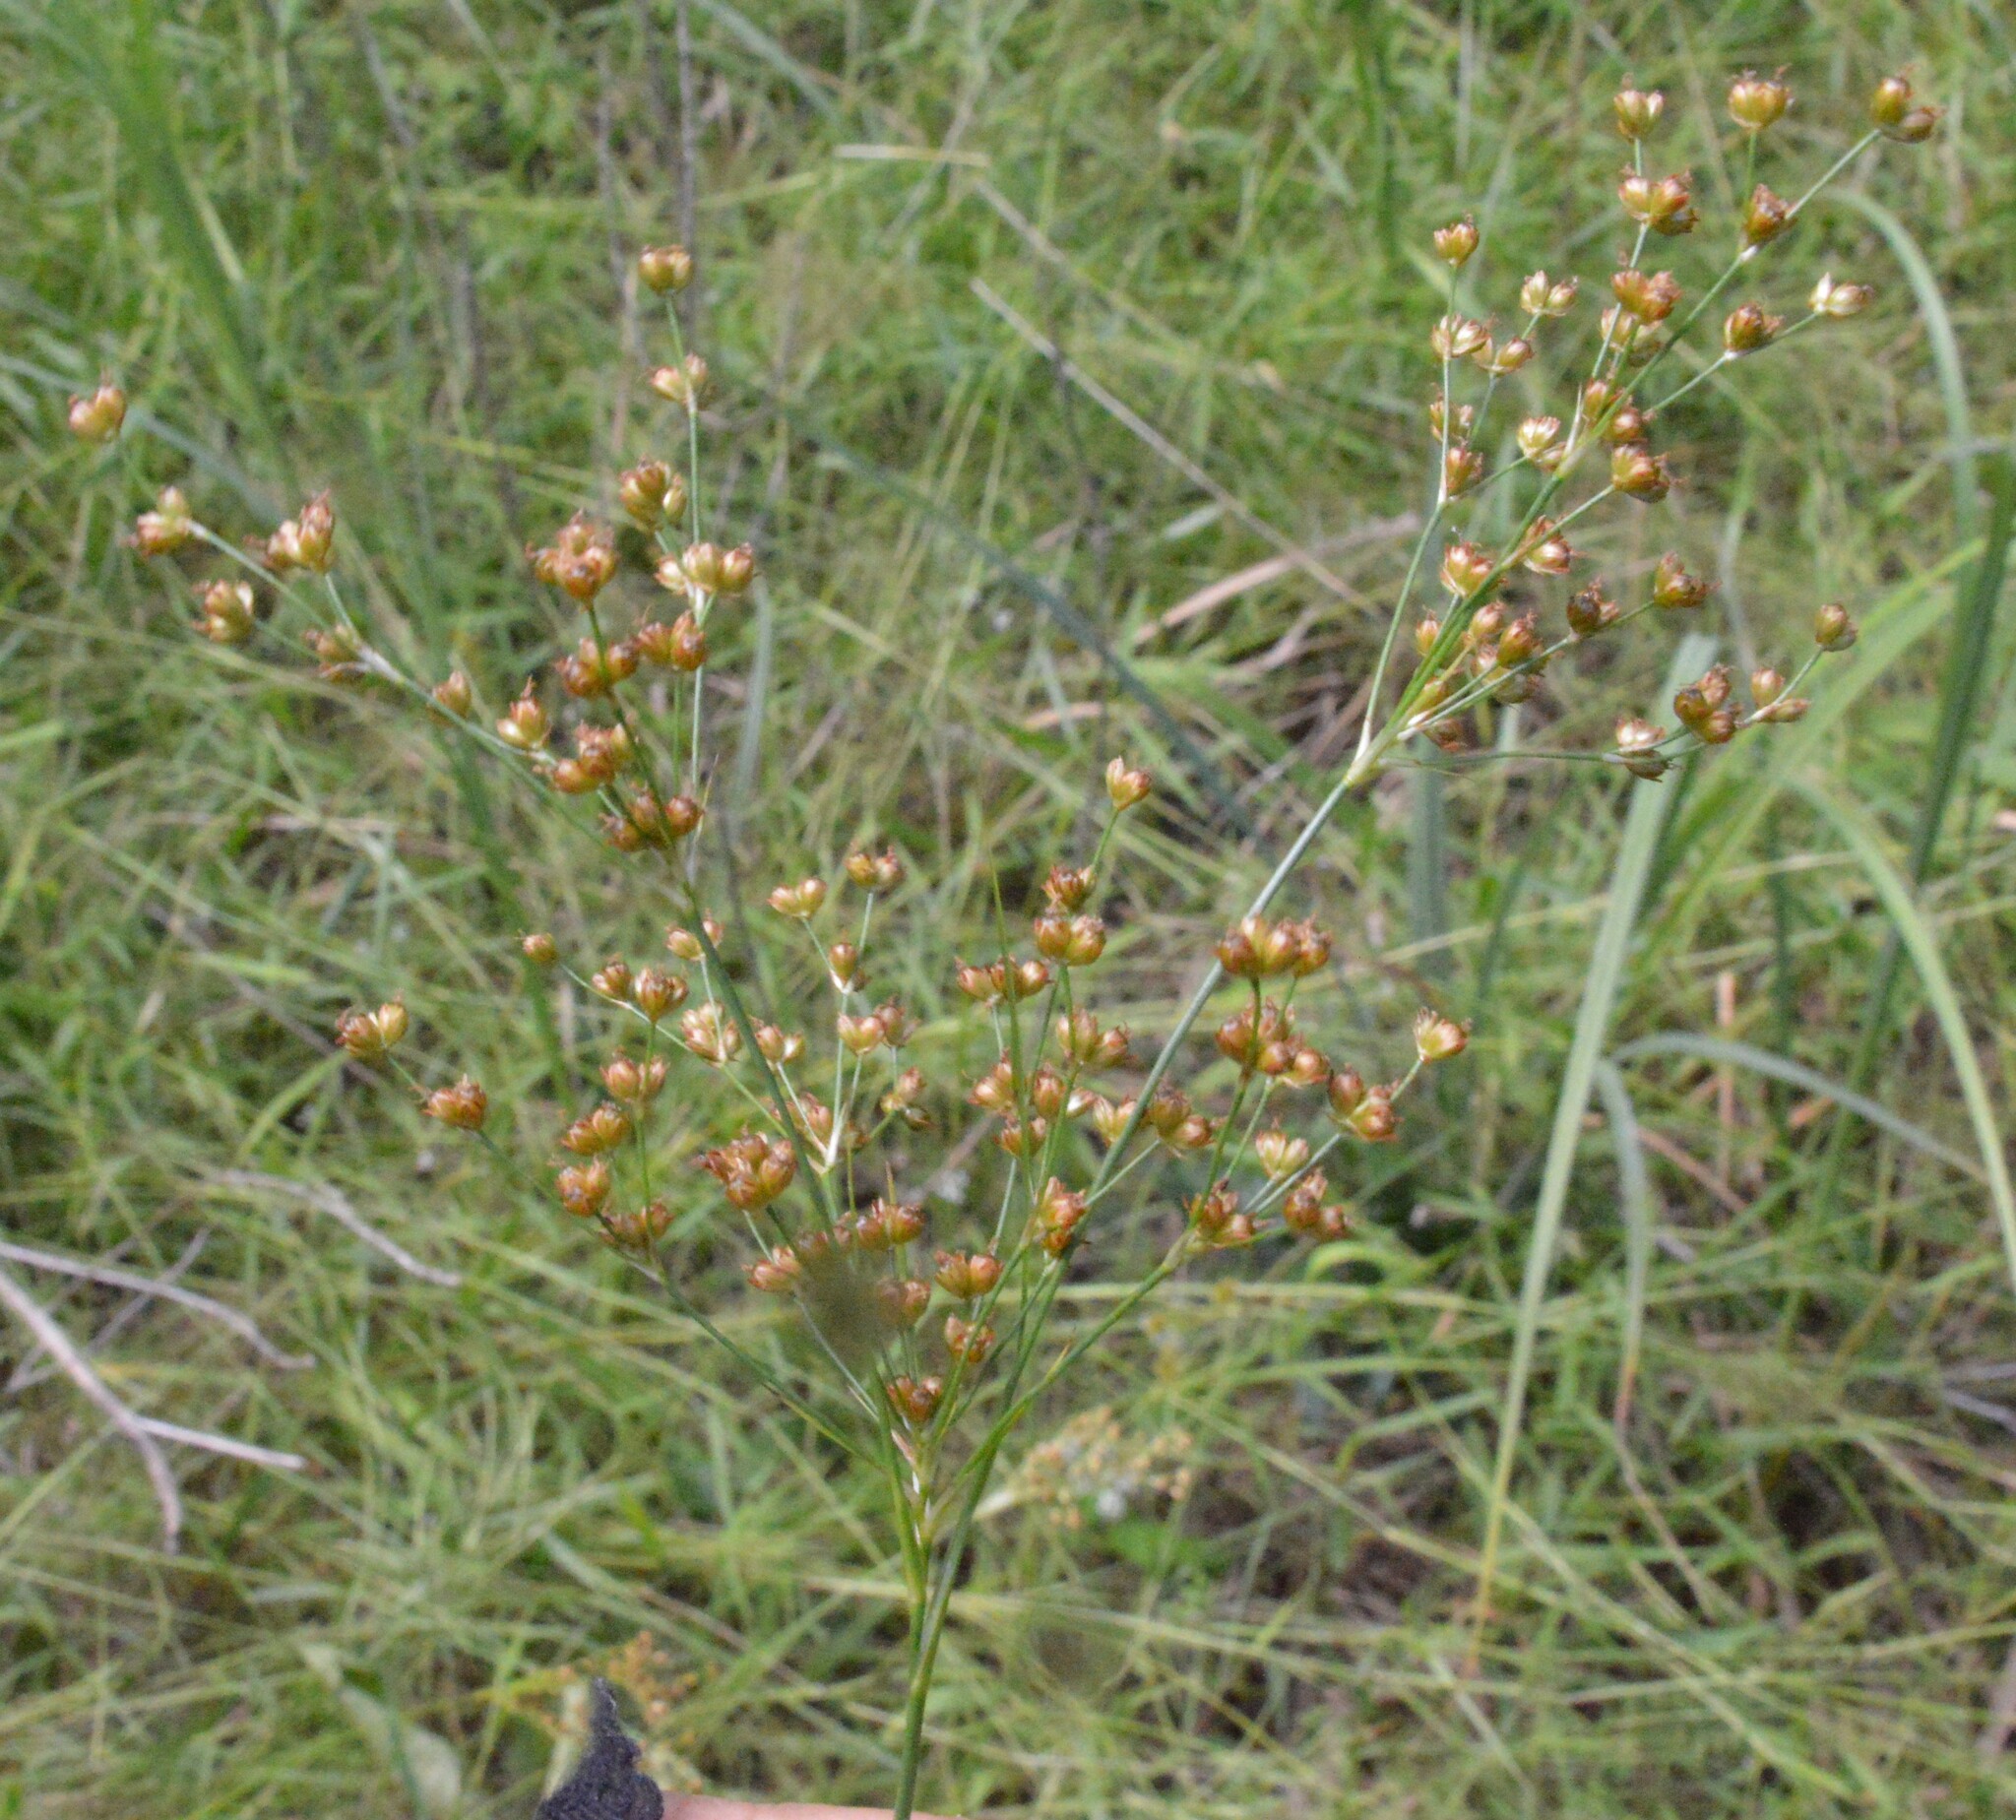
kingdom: Plantae
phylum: Tracheophyta
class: Liliopsida
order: Poales
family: Juncaceae
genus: Juncus
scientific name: Juncus marginatus
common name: Grass-leaf rush
